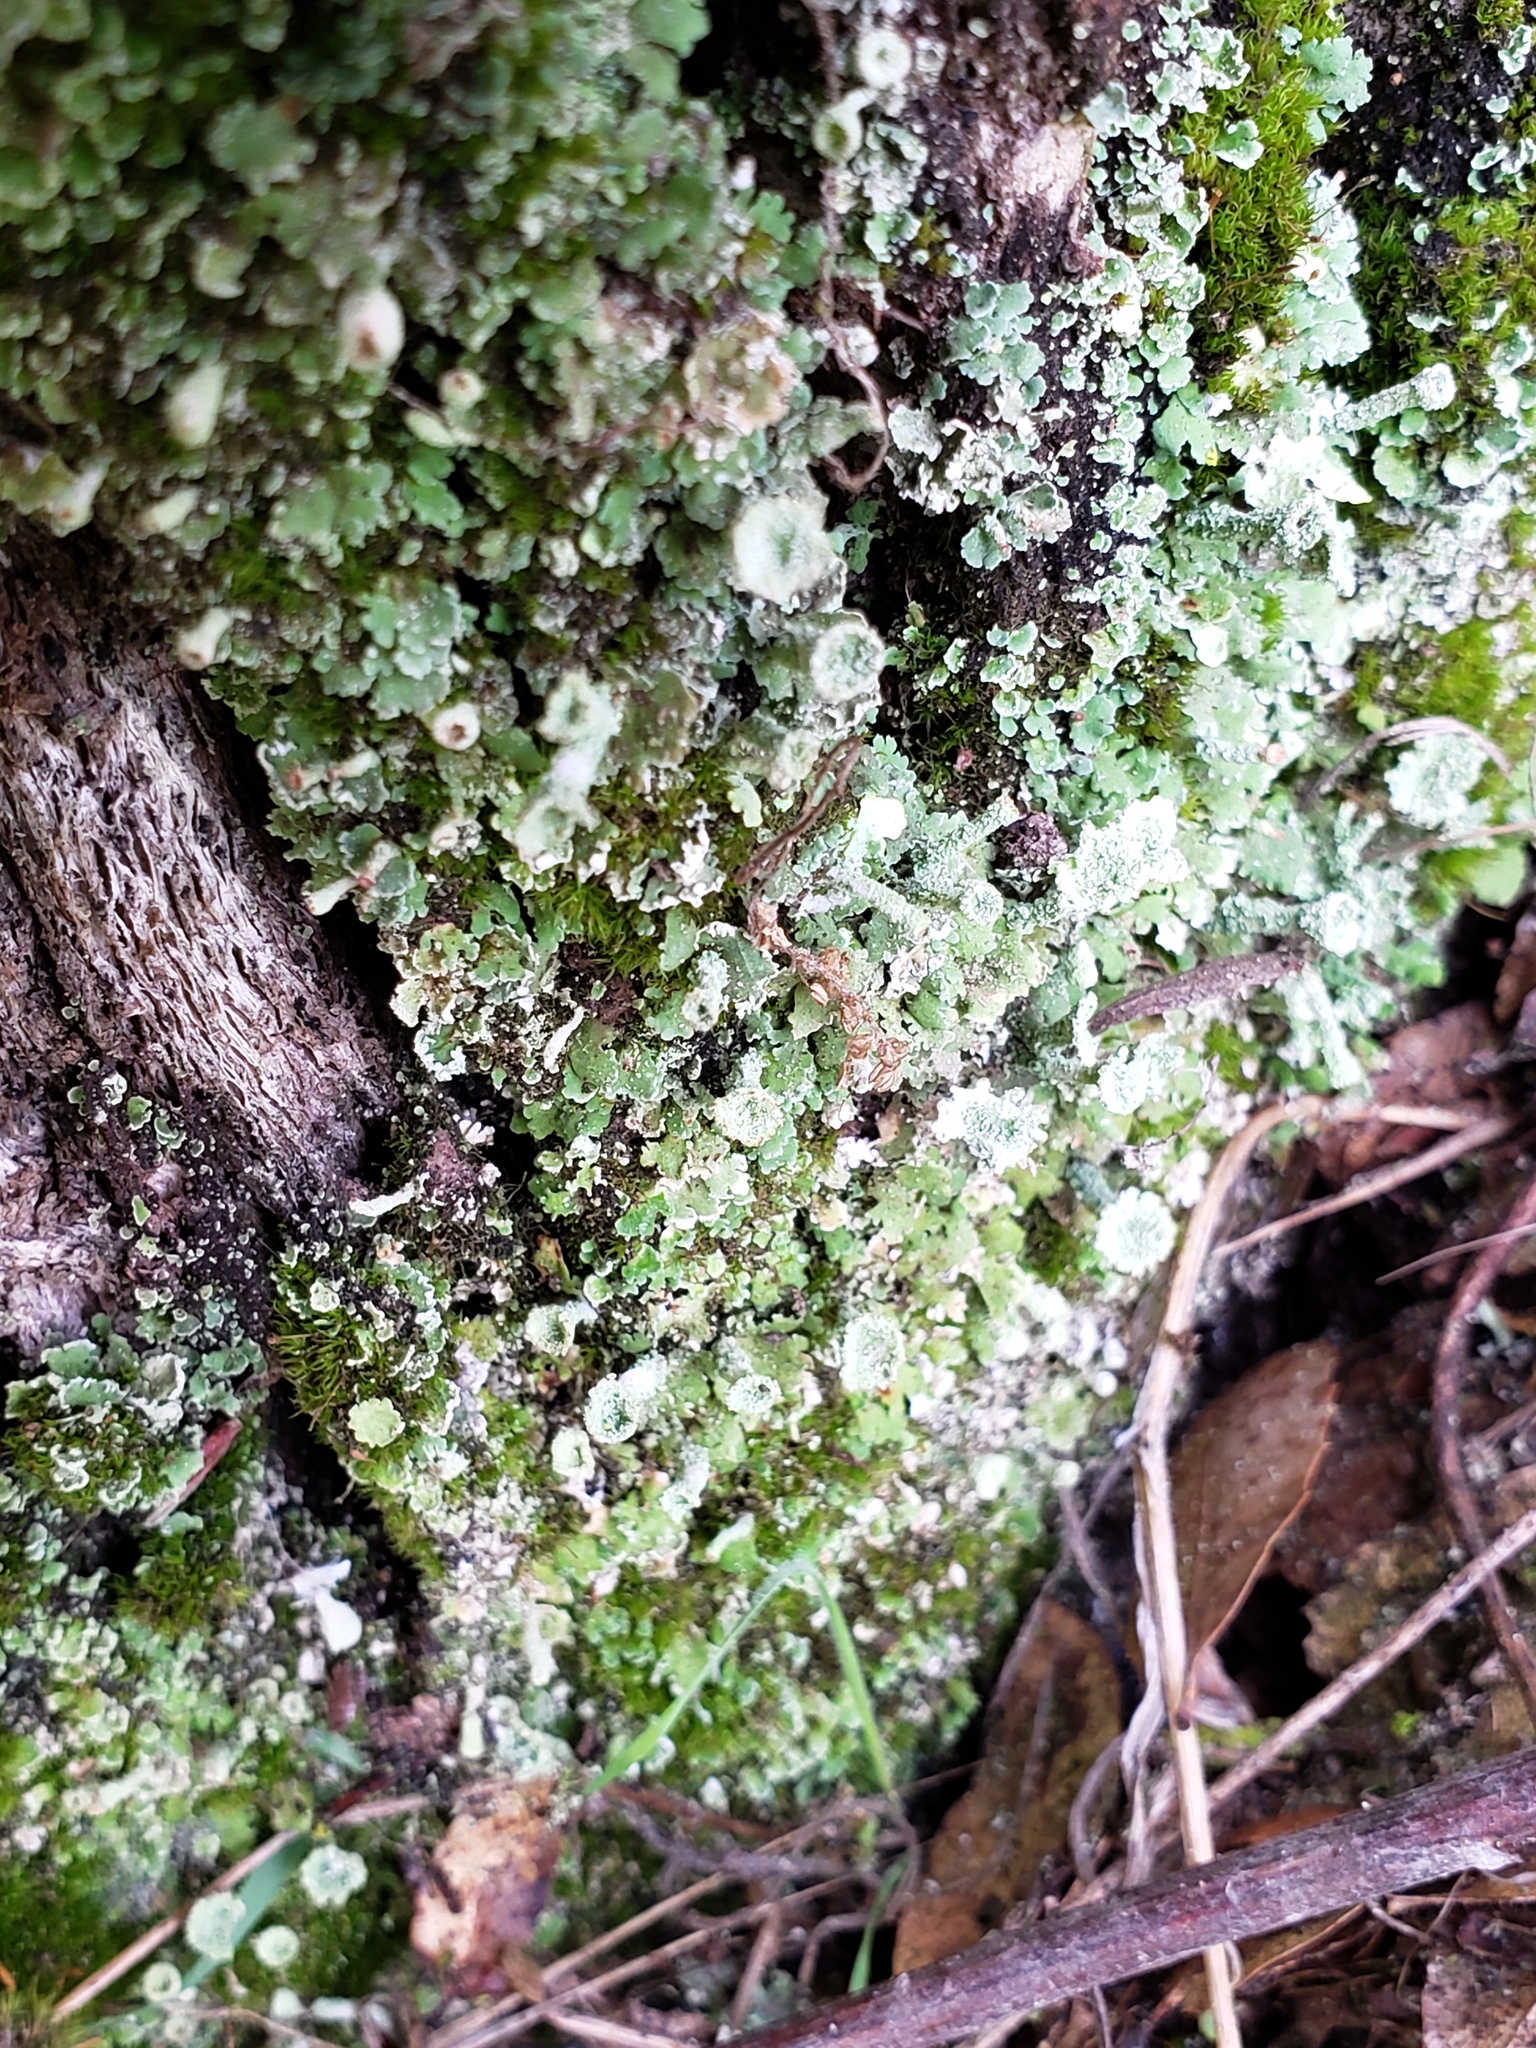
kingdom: Fungi
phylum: Ascomycota
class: Lecanoromycetes
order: Lecanorales
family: Cladoniaceae
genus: Cladonia
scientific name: Cladonia chlorophaea
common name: Mealy pixie cup
